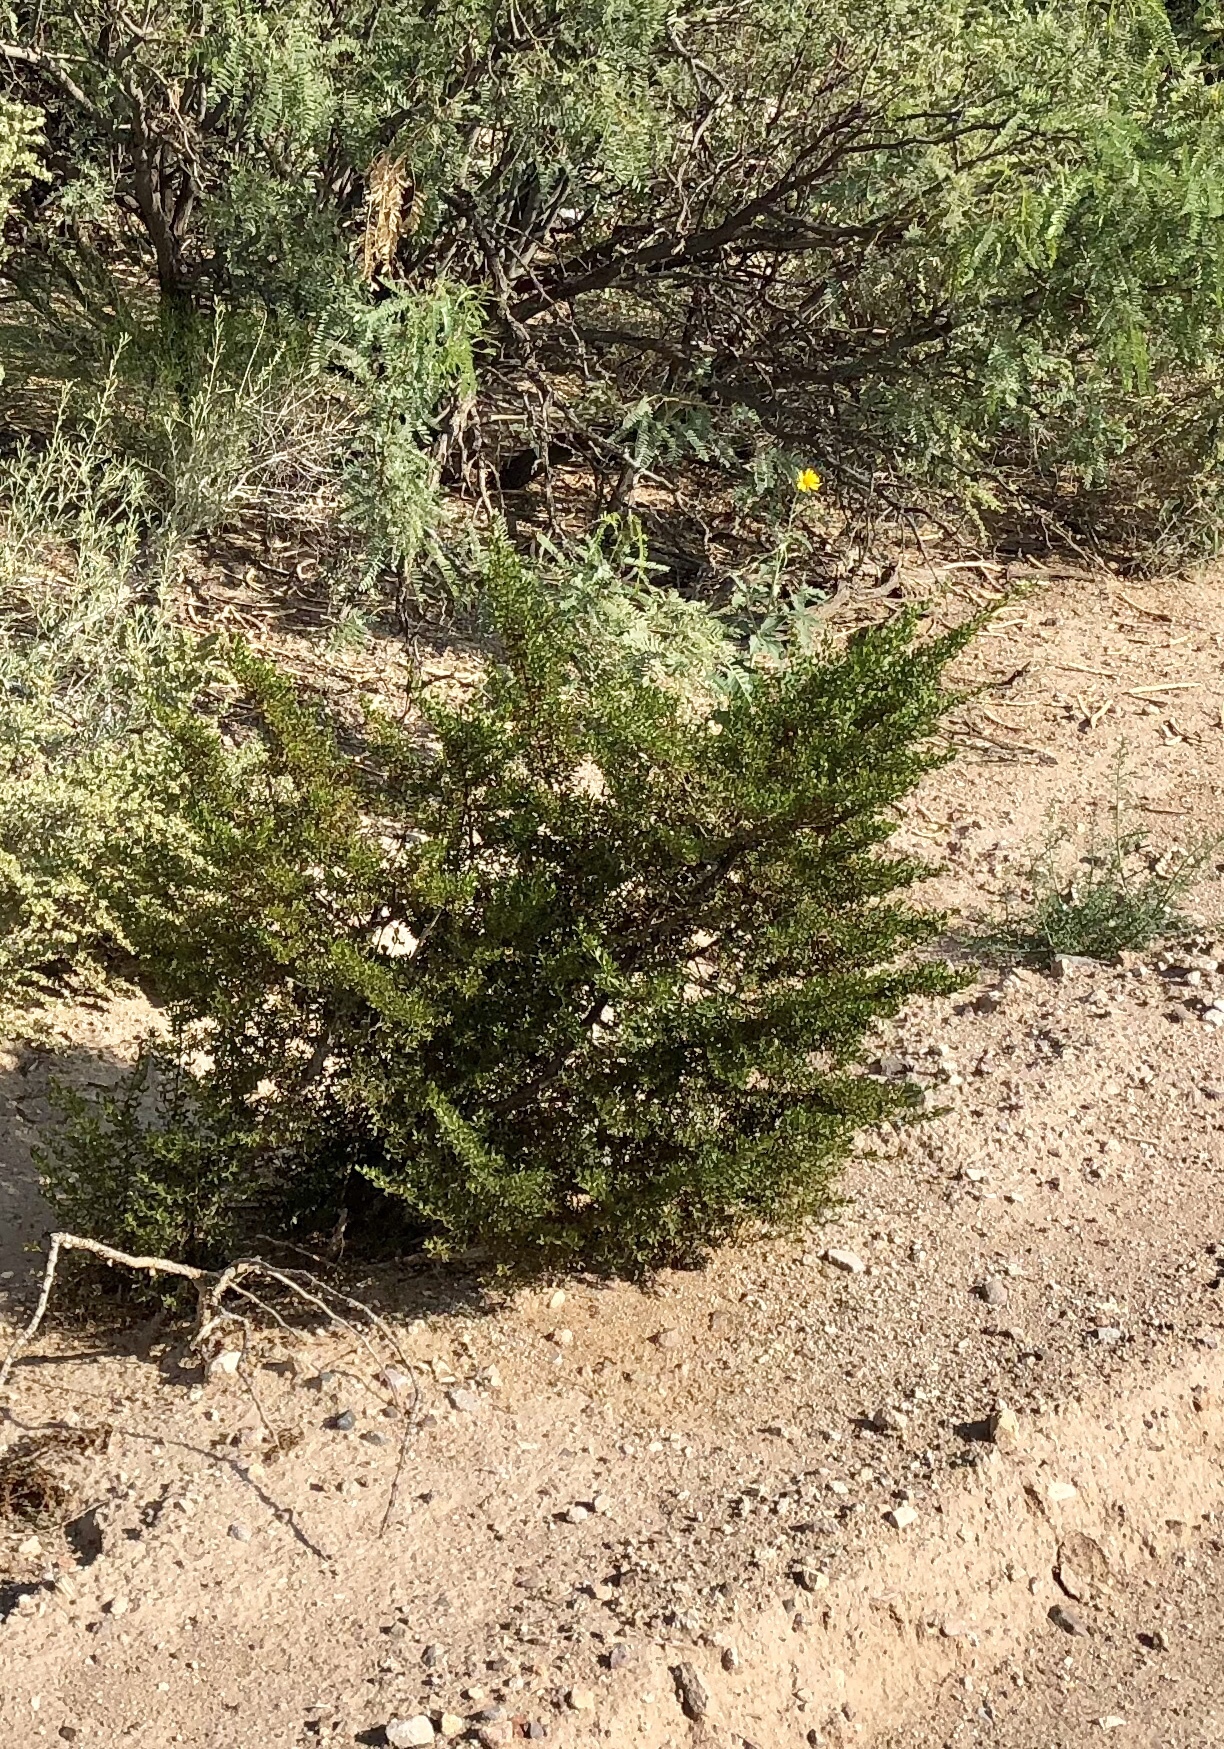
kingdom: Plantae
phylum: Tracheophyta
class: Magnoliopsida
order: Zygophyllales
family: Zygophyllaceae
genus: Larrea
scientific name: Larrea tridentata
